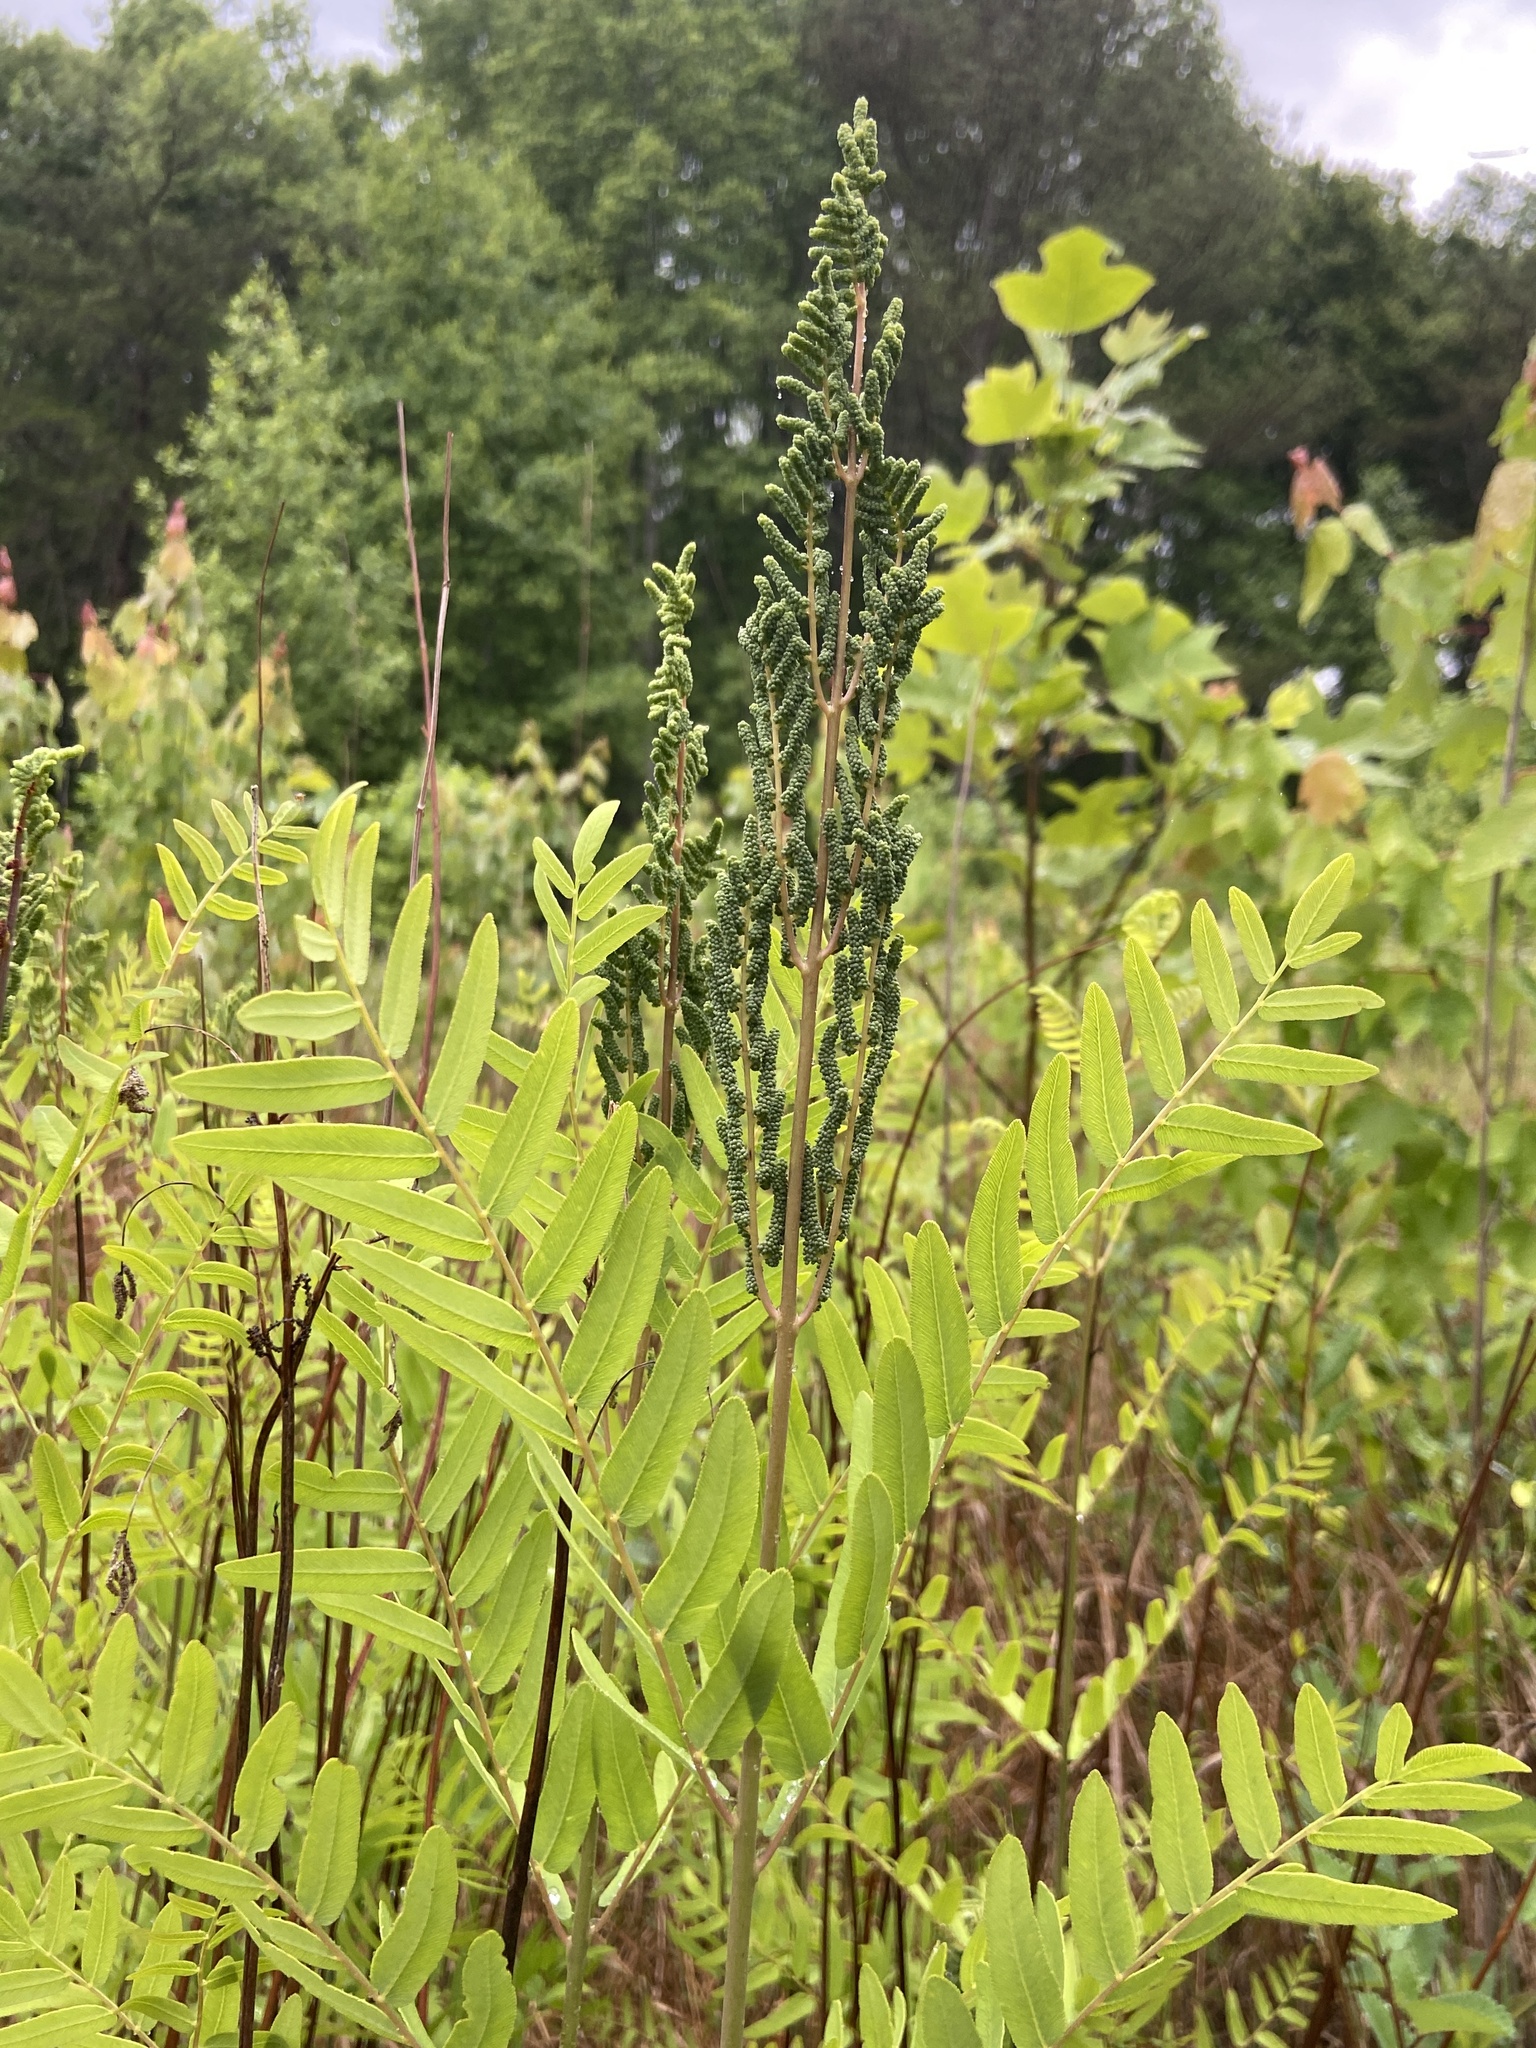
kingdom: Plantae
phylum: Tracheophyta
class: Polypodiopsida
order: Osmundales
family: Osmundaceae
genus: Osmunda
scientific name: Osmunda spectabilis
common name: American royal fern
